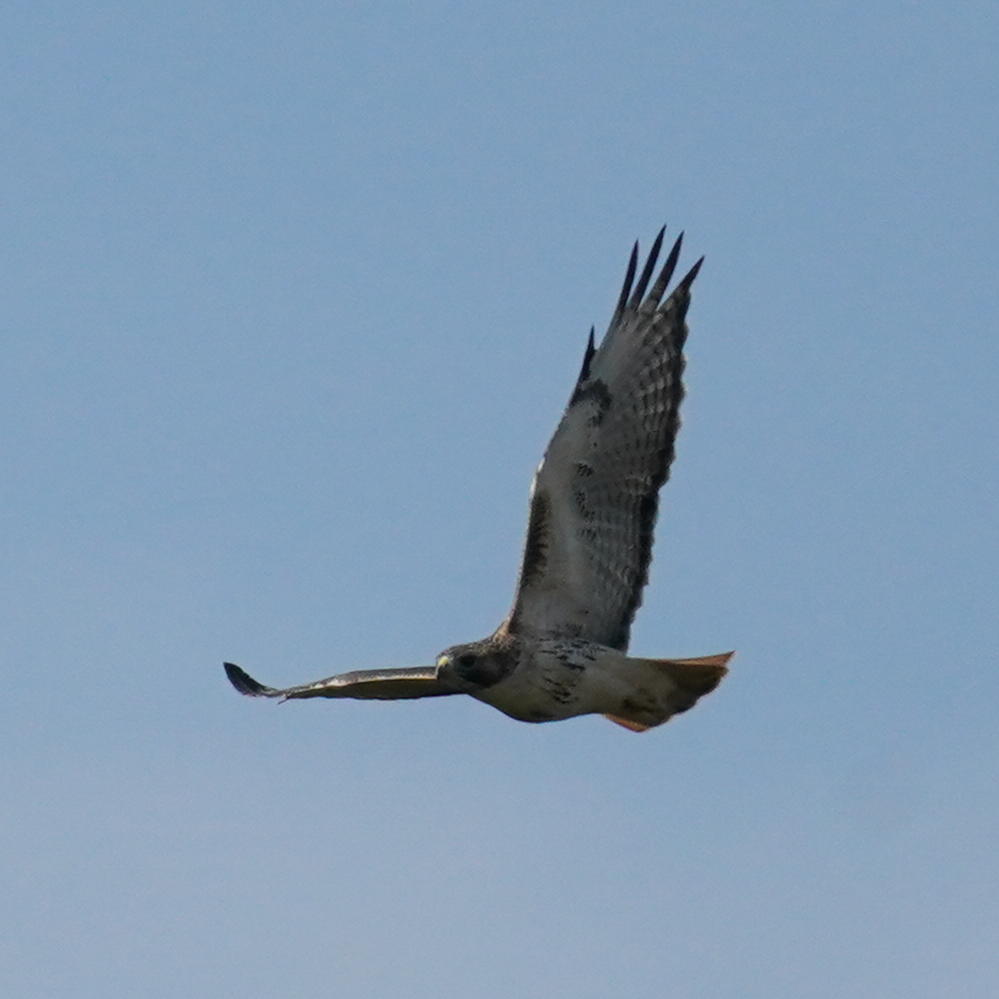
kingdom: Animalia
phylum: Chordata
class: Aves
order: Accipitriformes
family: Accipitridae
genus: Buteo
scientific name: Buteo jamaicensis
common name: Red-tailed hawk
